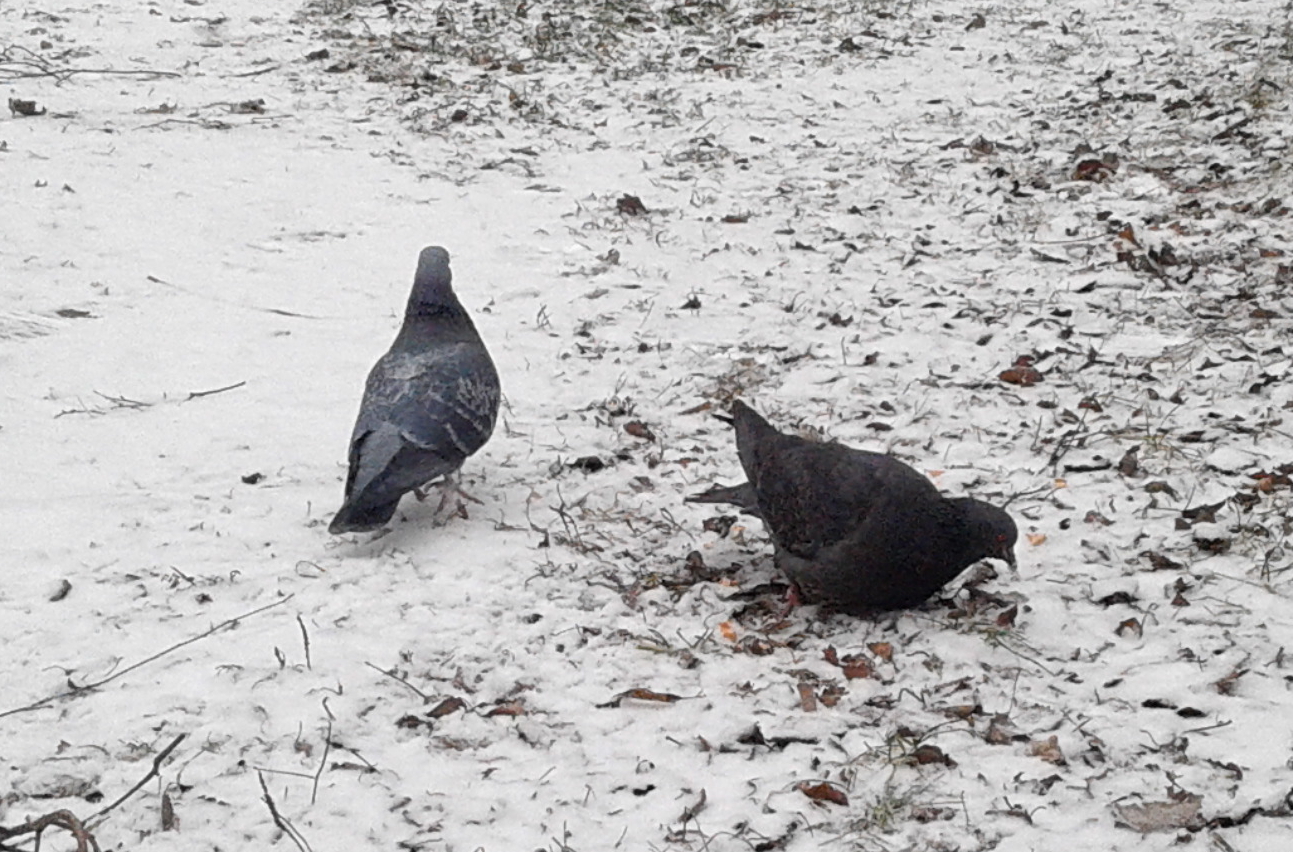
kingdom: Animalia
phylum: Chordata
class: Aves
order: Columbiformes
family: Columbidae
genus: Columba
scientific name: Columba livia
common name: Rock pigeon
